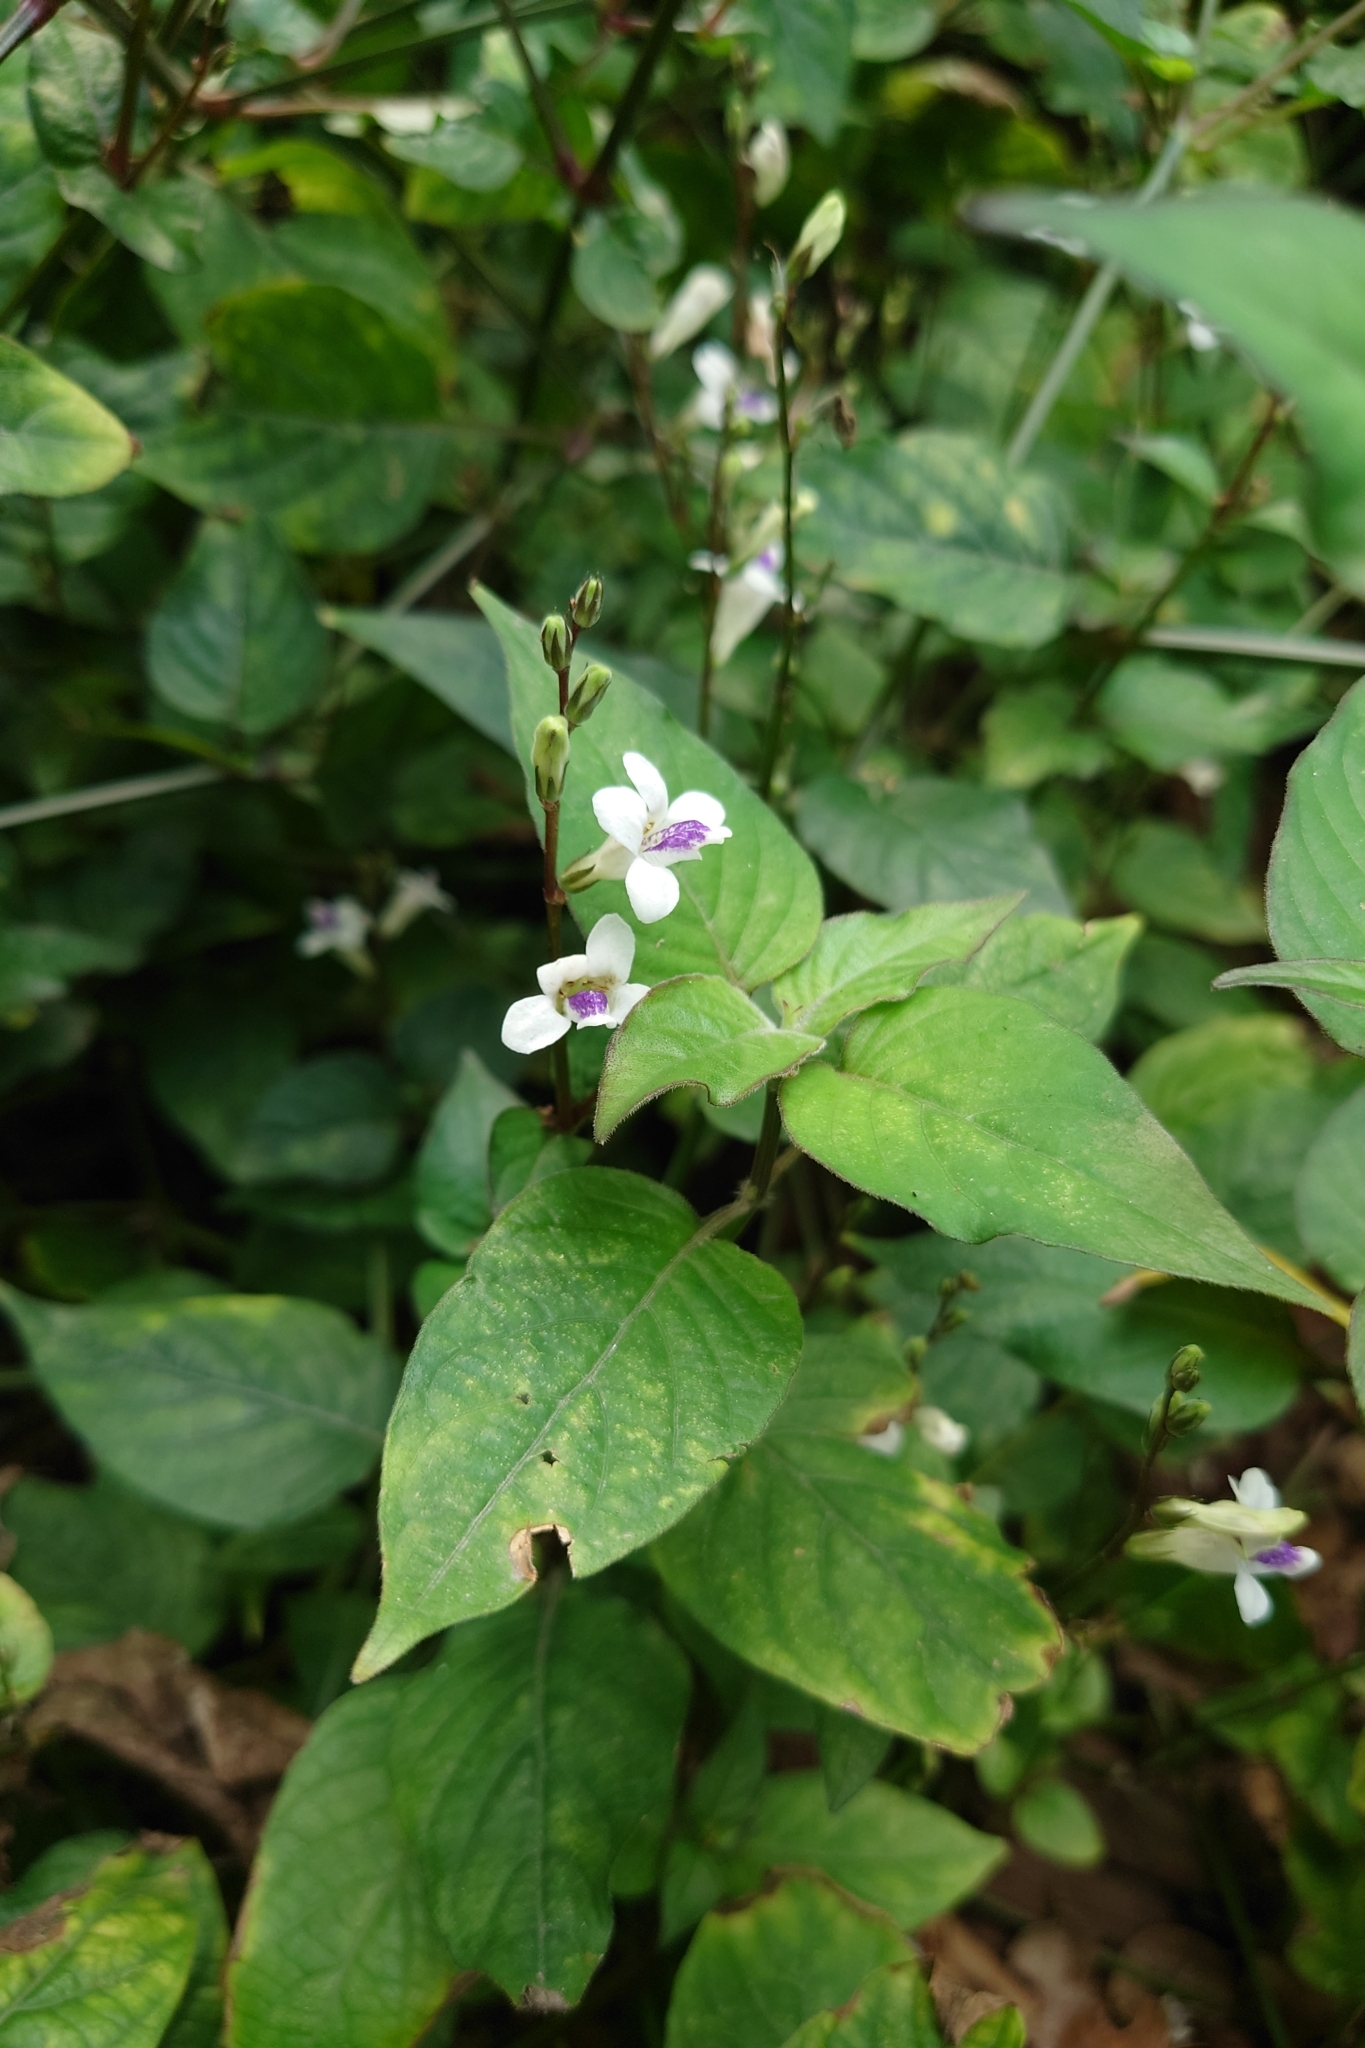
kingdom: Plantae
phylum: Tracheophyta
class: Magnoliopsida
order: Lamiales
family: Acanthaceae
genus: Asystasia
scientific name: Asystasia intrusa
